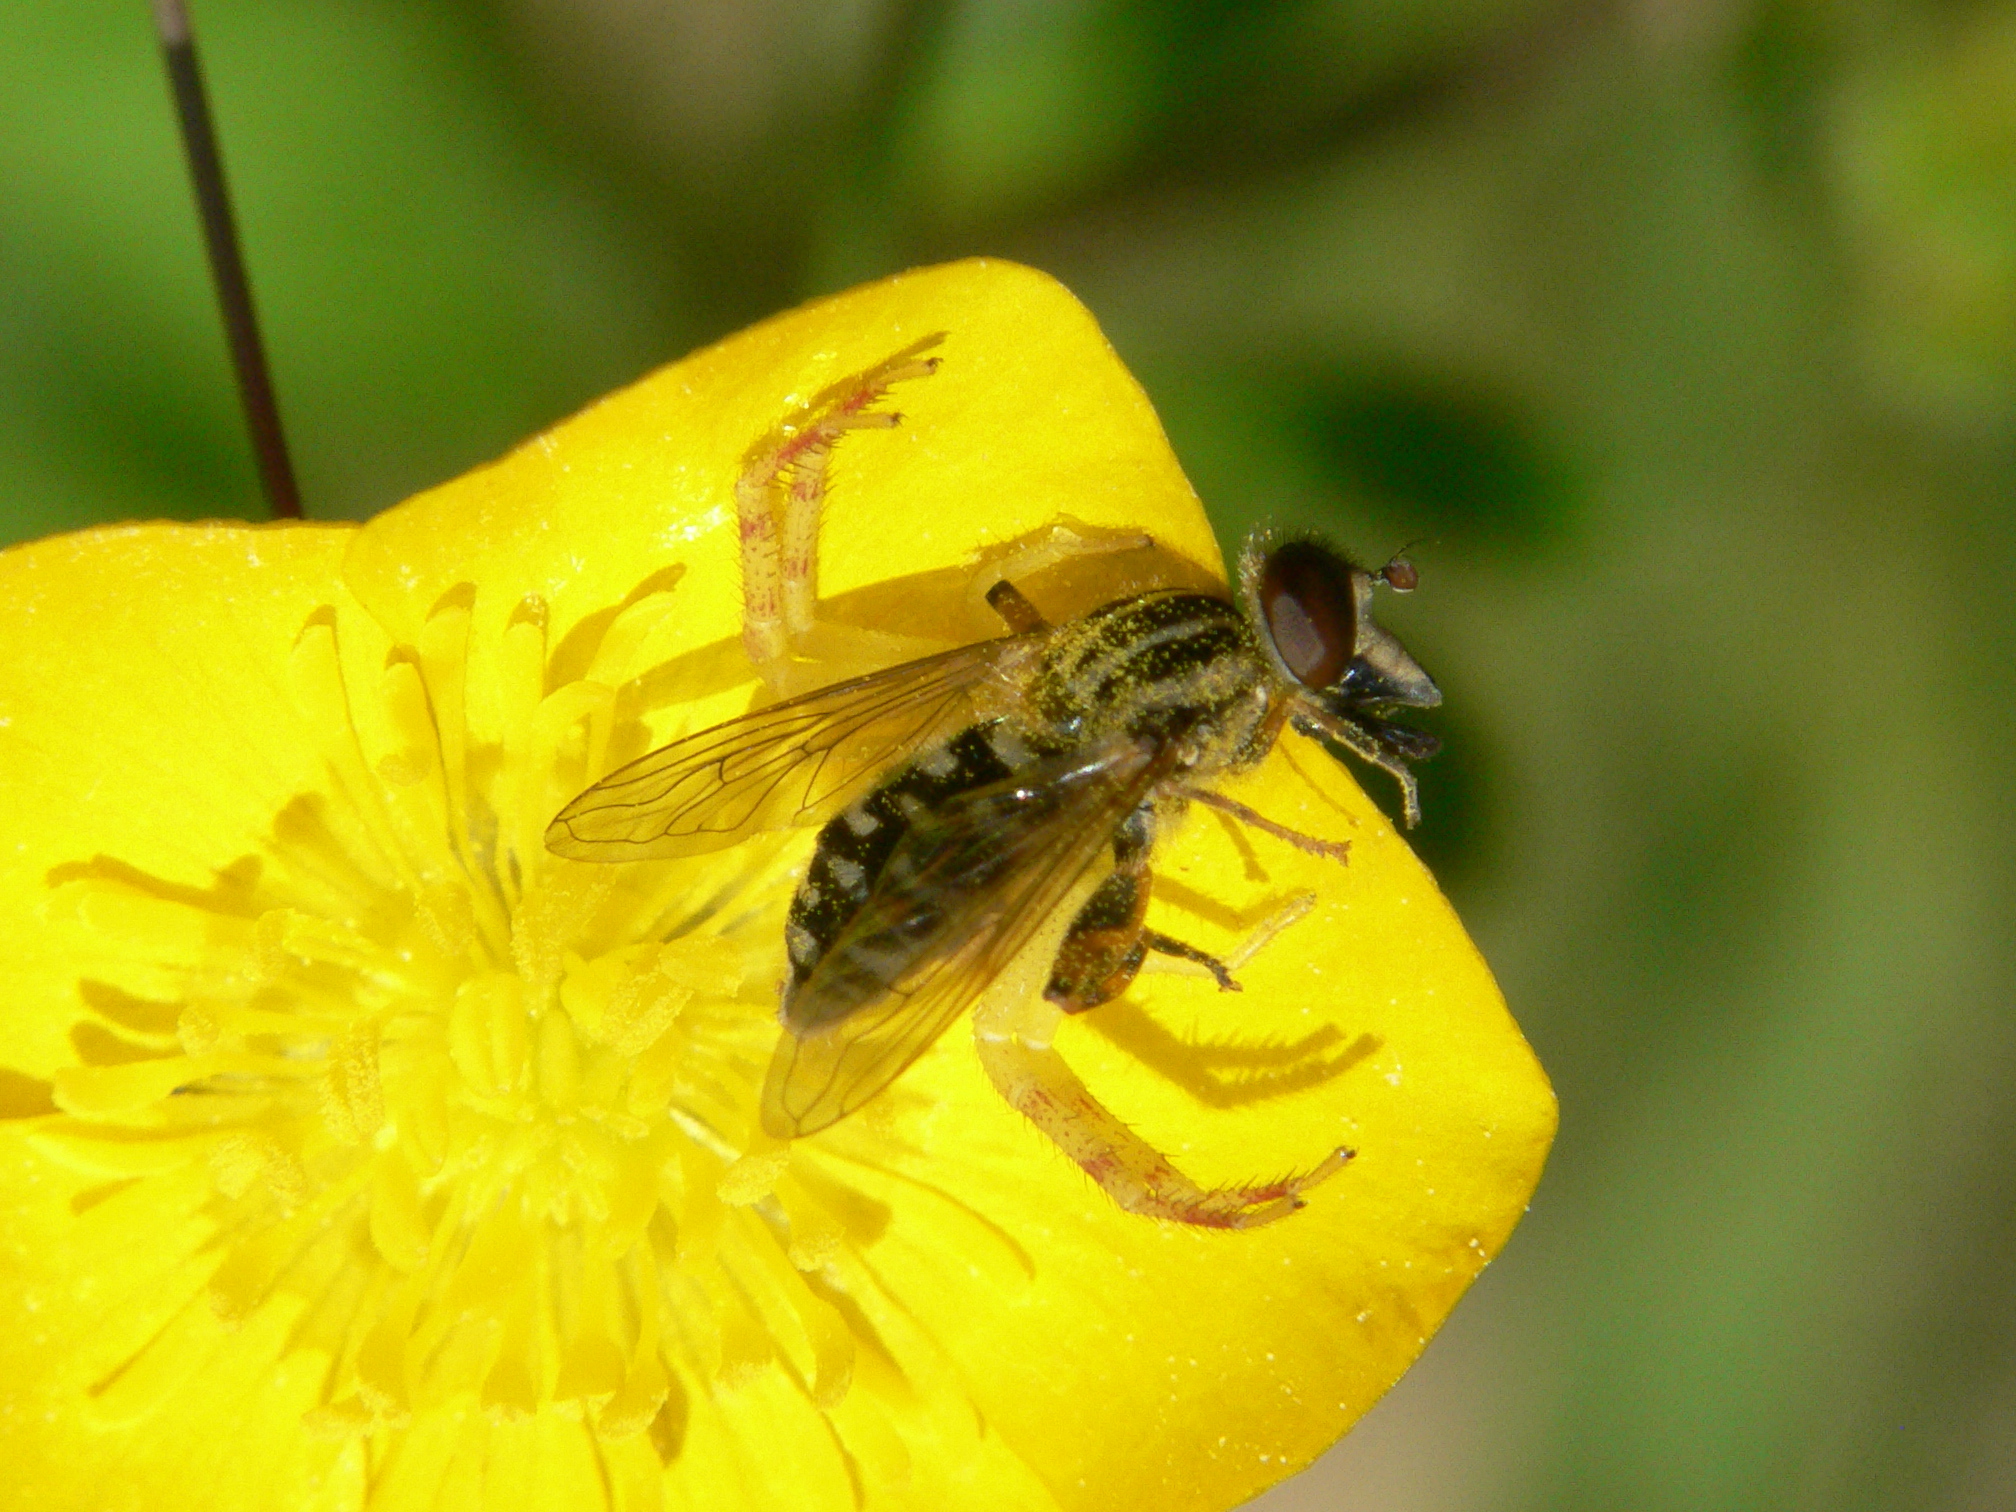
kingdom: Animalia
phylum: Arthropoda
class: Insecta
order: Diptera
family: Syrphidae
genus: Eurimyia
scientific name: Eurimyia stipatus
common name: Long-nosed swamp fly
